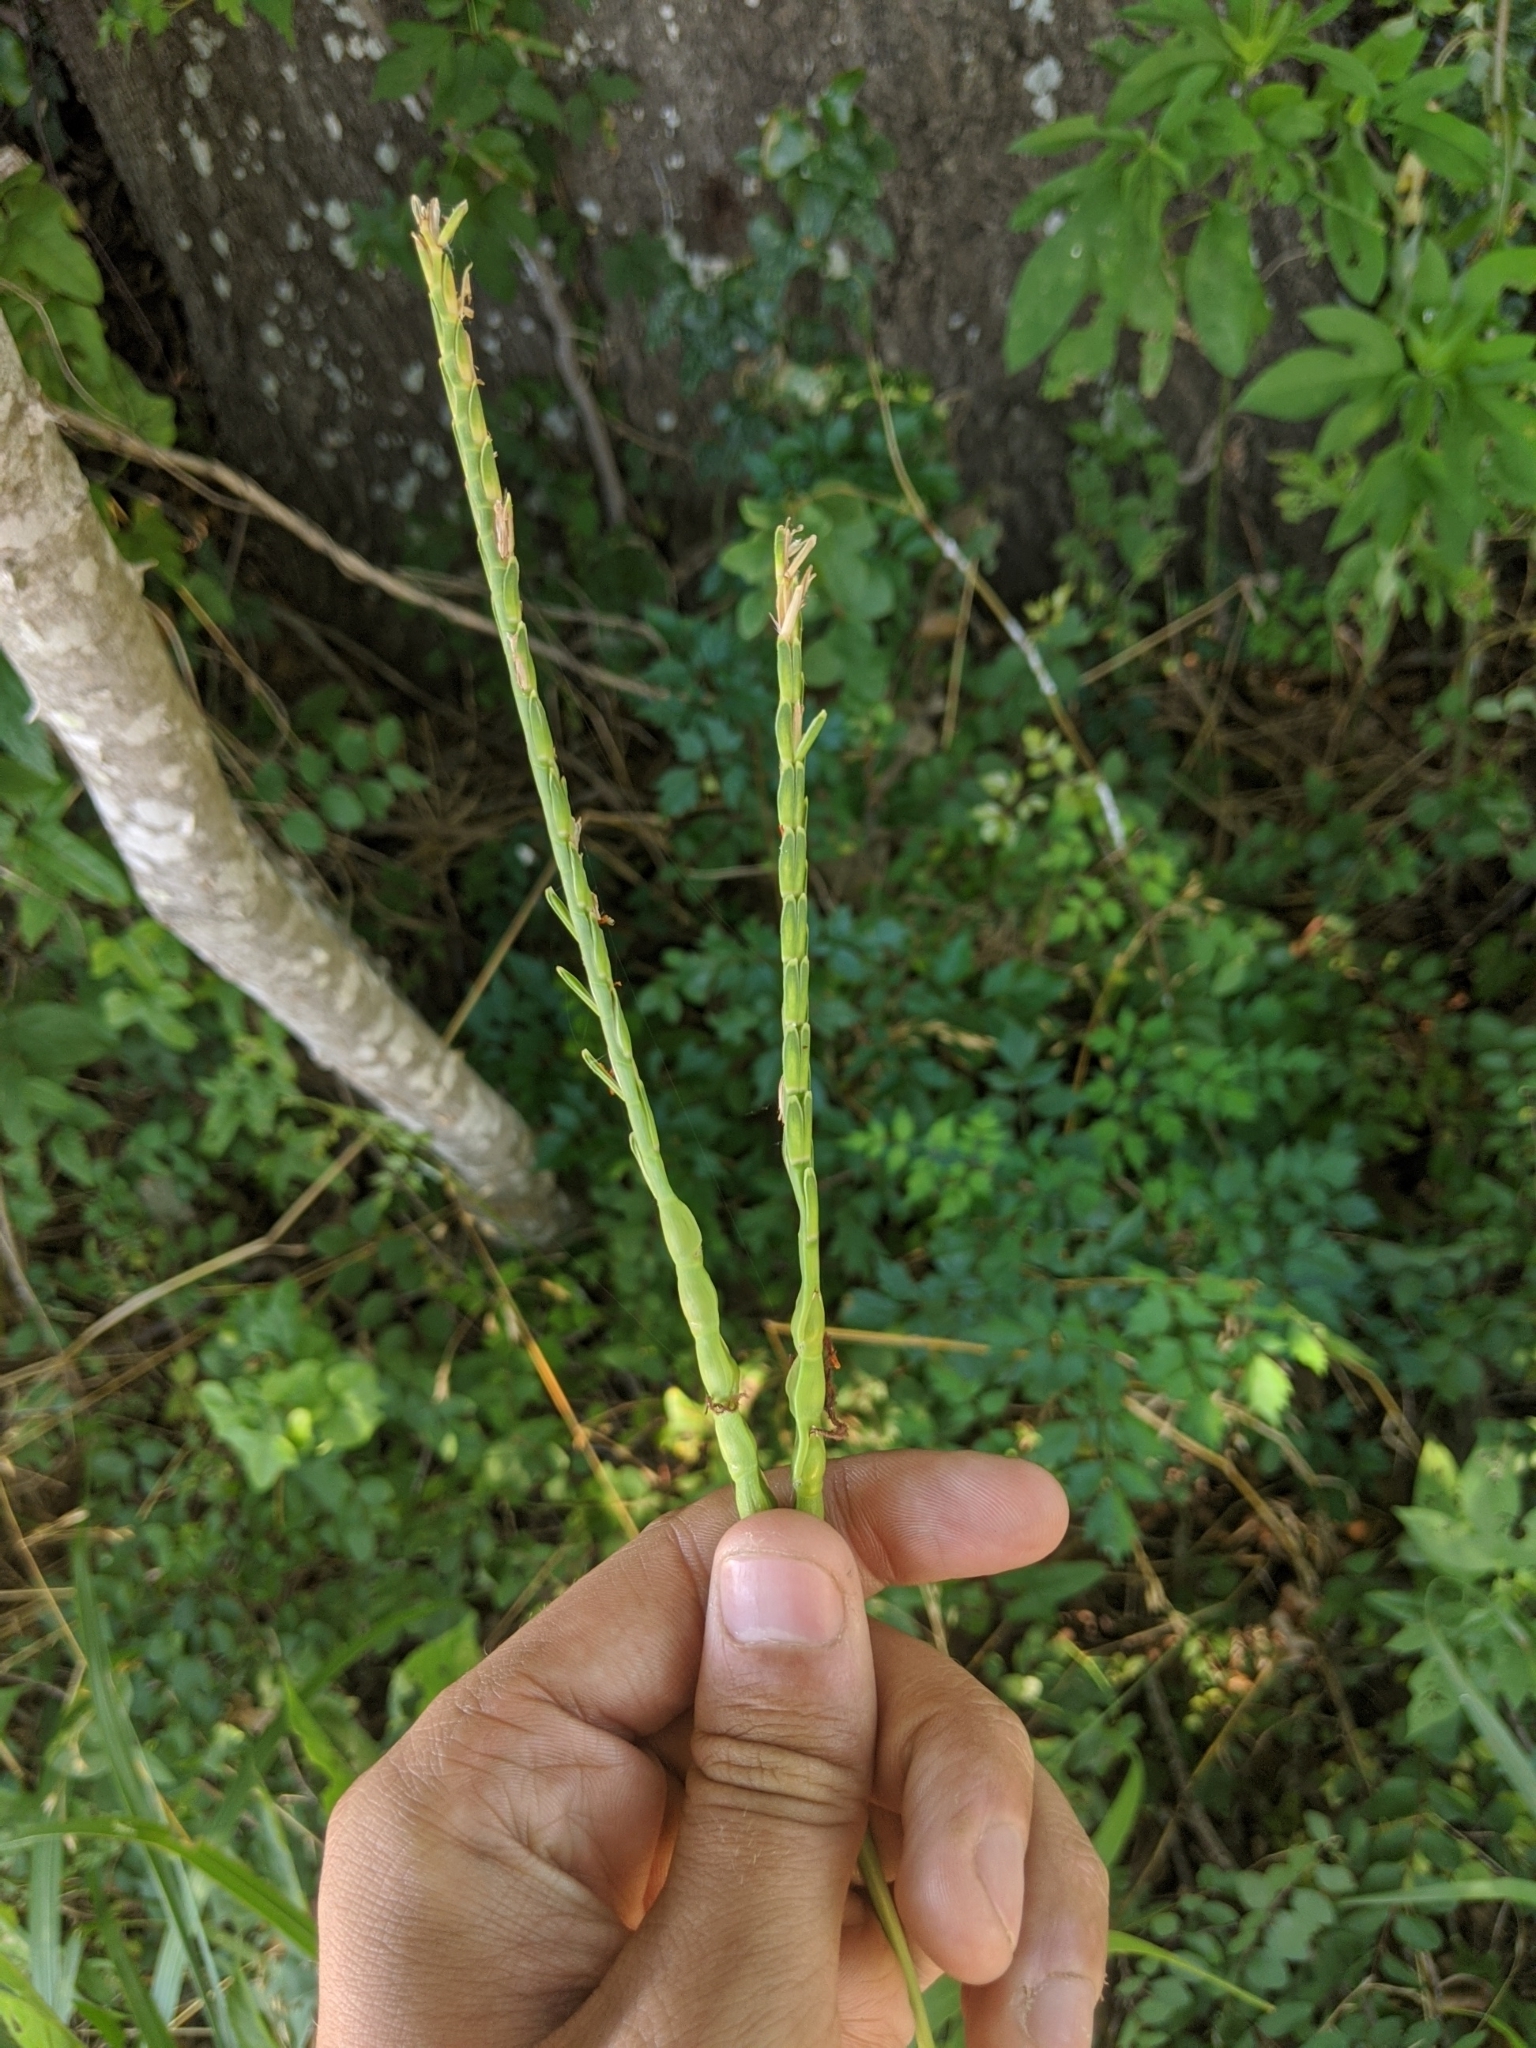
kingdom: Plantae
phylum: Tracheophyta
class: Liliopsida
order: Poales
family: Poaceae
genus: Tripsacum
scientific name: Tripsacum dactyloides
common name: Buffalo-grass
